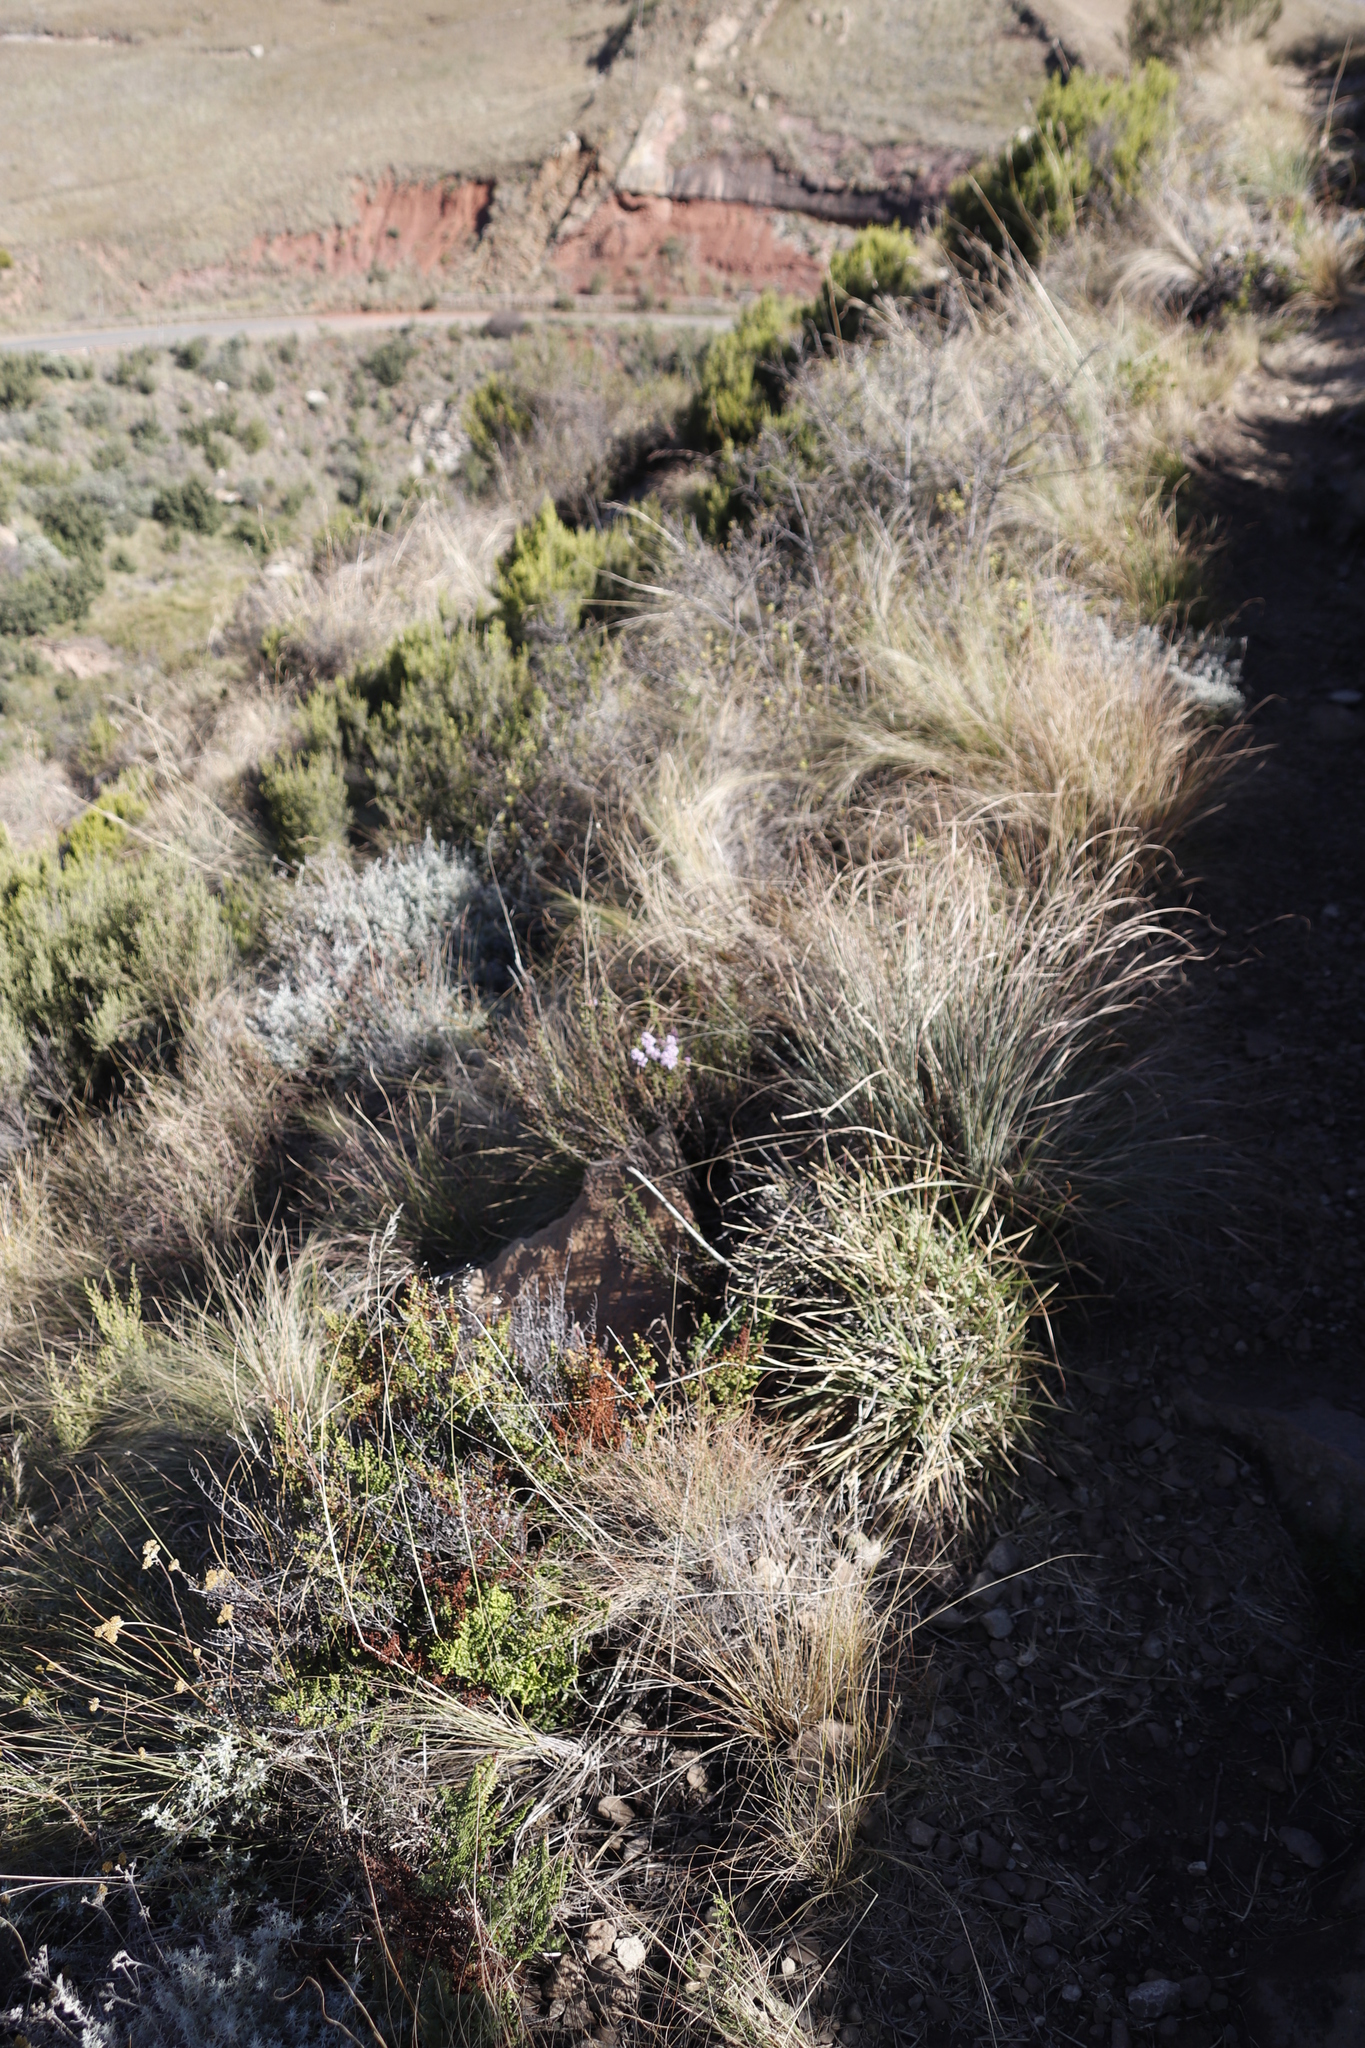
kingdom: Plantae
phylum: Tracheophyta
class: Magnoliopsida
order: Lamiales
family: Scrophulariaceae
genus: Selago
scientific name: Selago flanaganii
